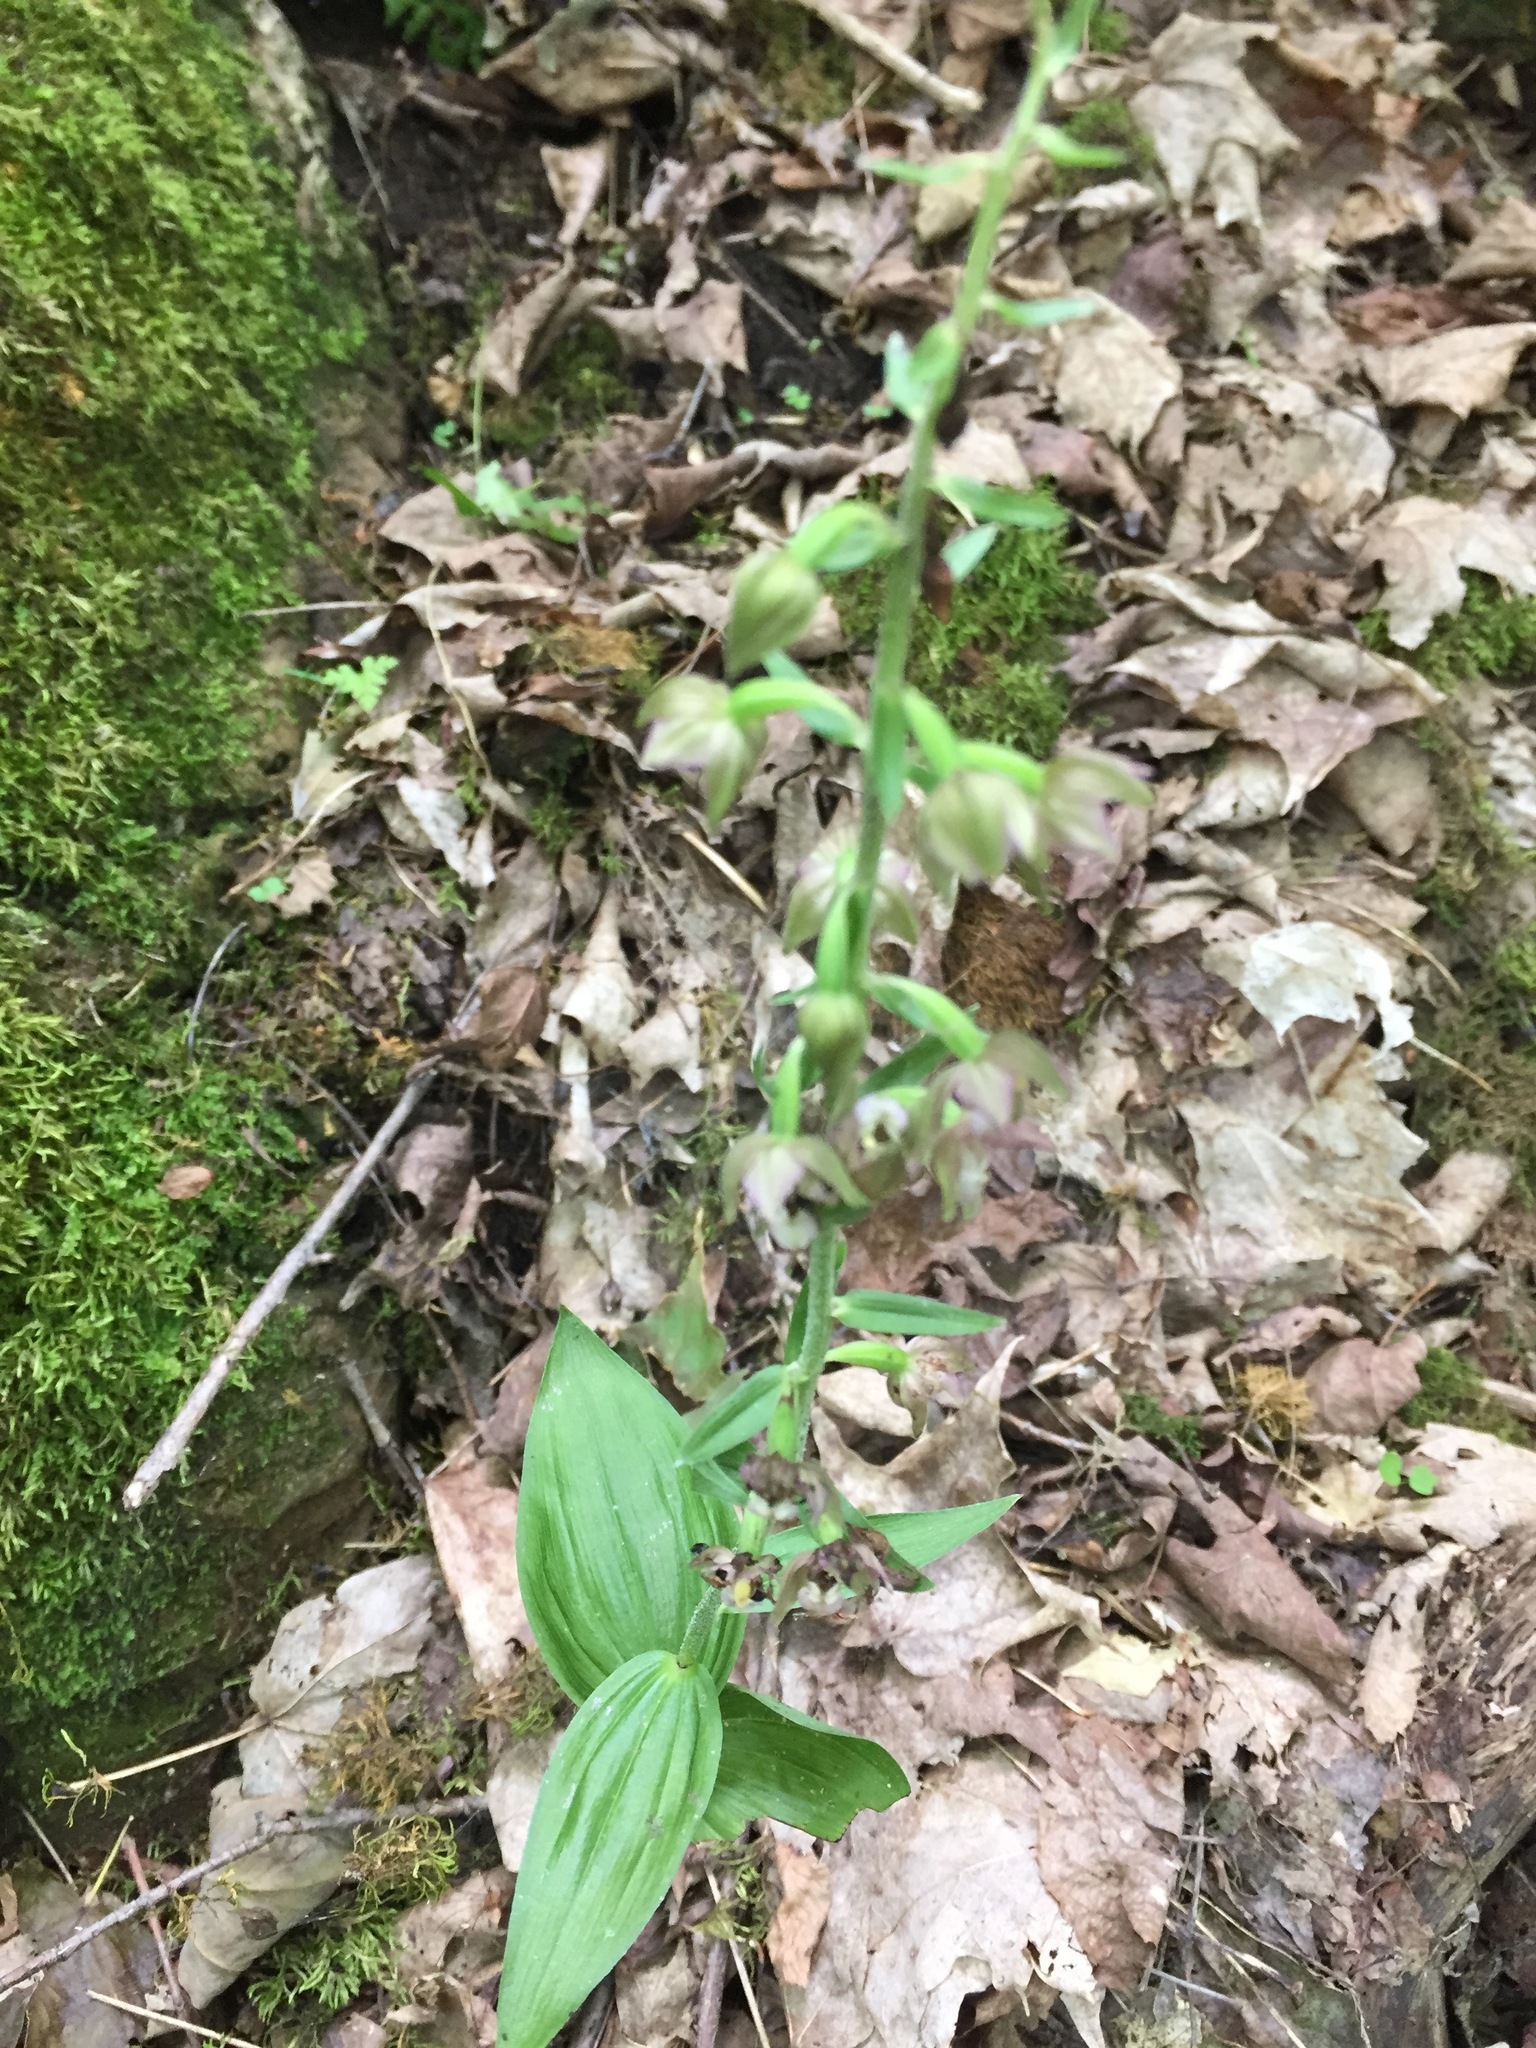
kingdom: Plantae
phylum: Tracheophyta
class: Liliopsida
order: Asparagales
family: Orchidaceae
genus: Epipactis
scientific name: Epipactis helleborine
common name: Broad-leaved helleborine
